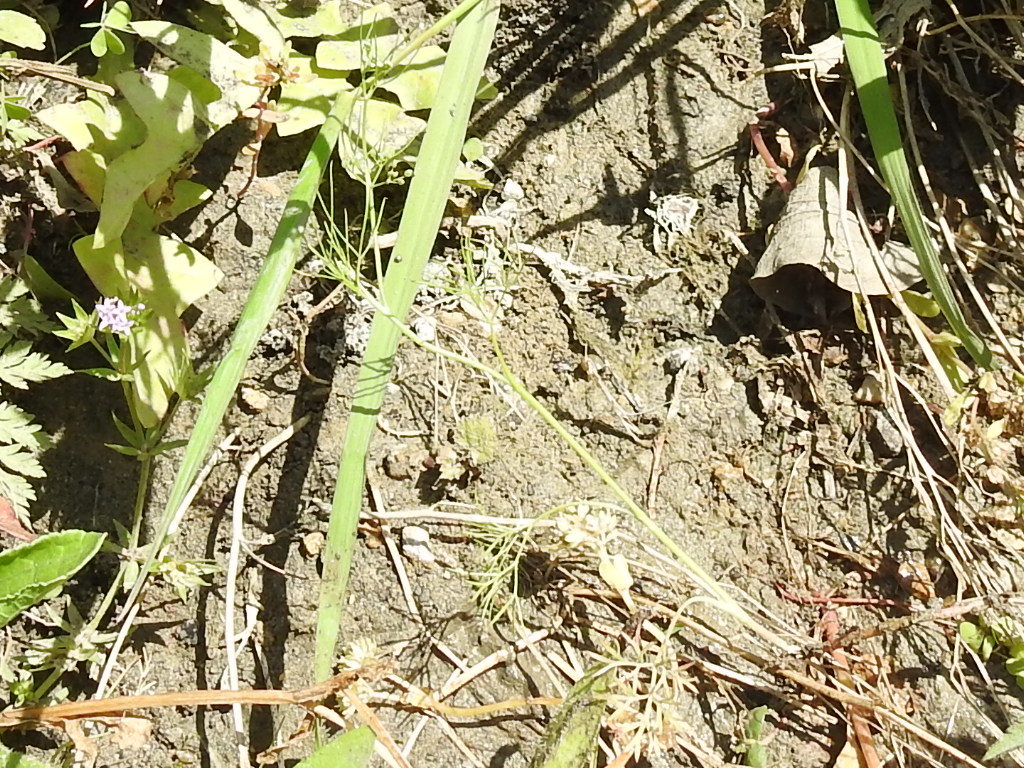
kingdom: Plantae
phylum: Tracheophyta
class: Magnoliopsida
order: Apiales
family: Apiaceae
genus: Cyclospermum
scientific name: Cyclospermum leptophyllum
